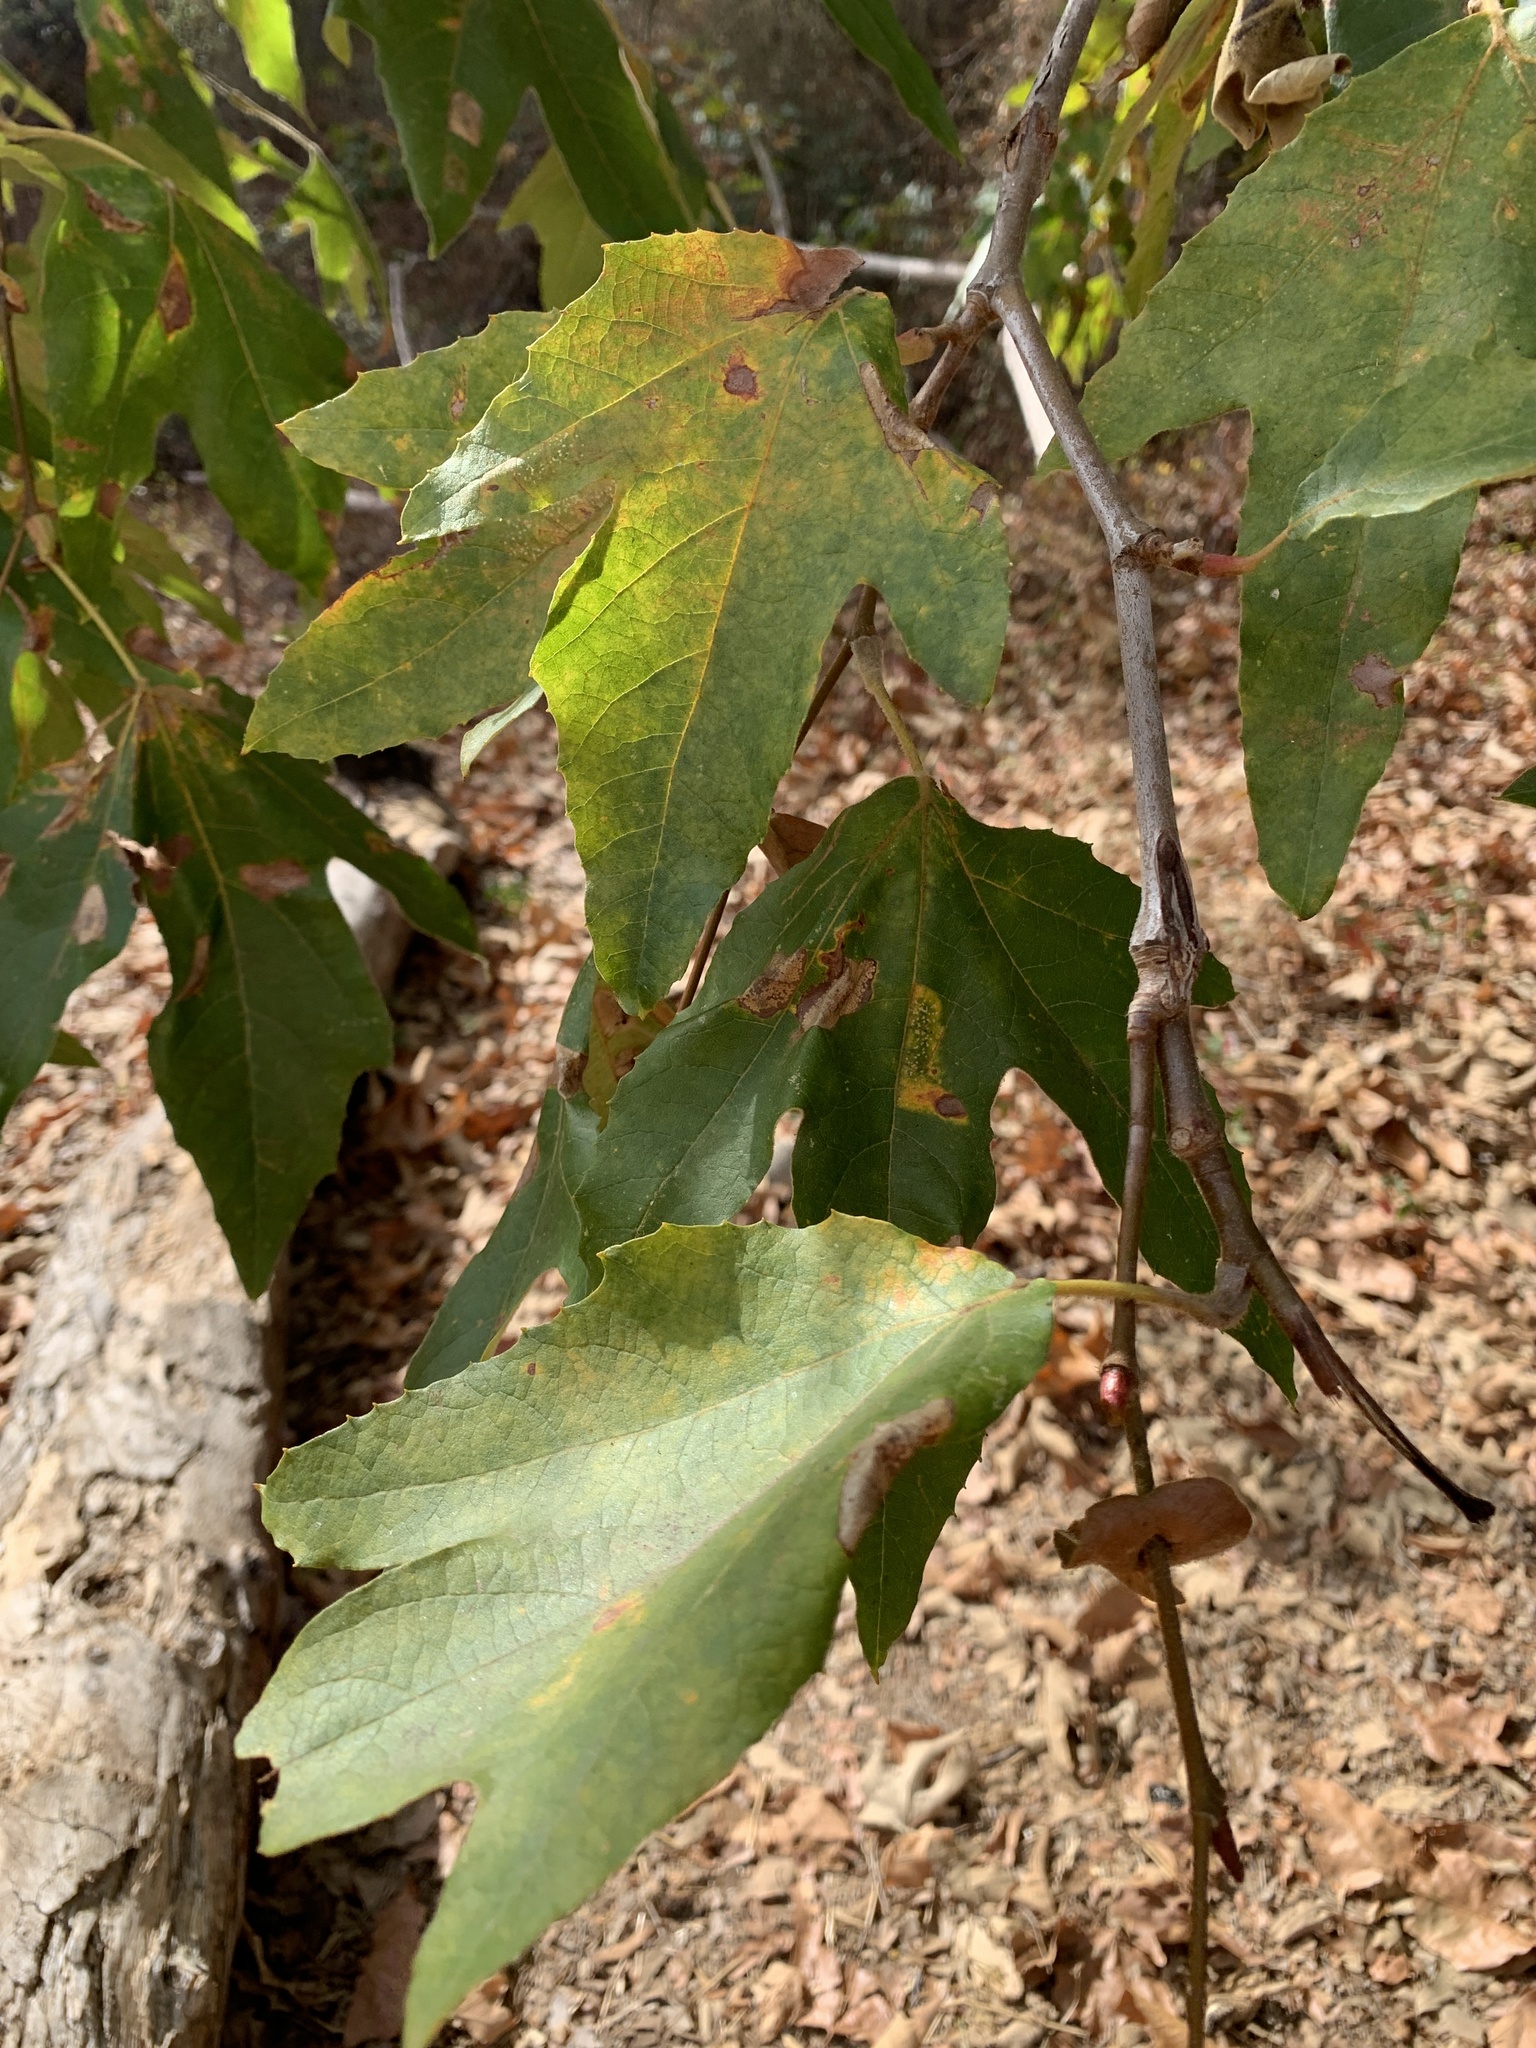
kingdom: Plantae
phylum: Tracheophyta
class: Magnoliopsida
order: Proteales
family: Platanaceae
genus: Platanus
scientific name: Platanus racemosa
